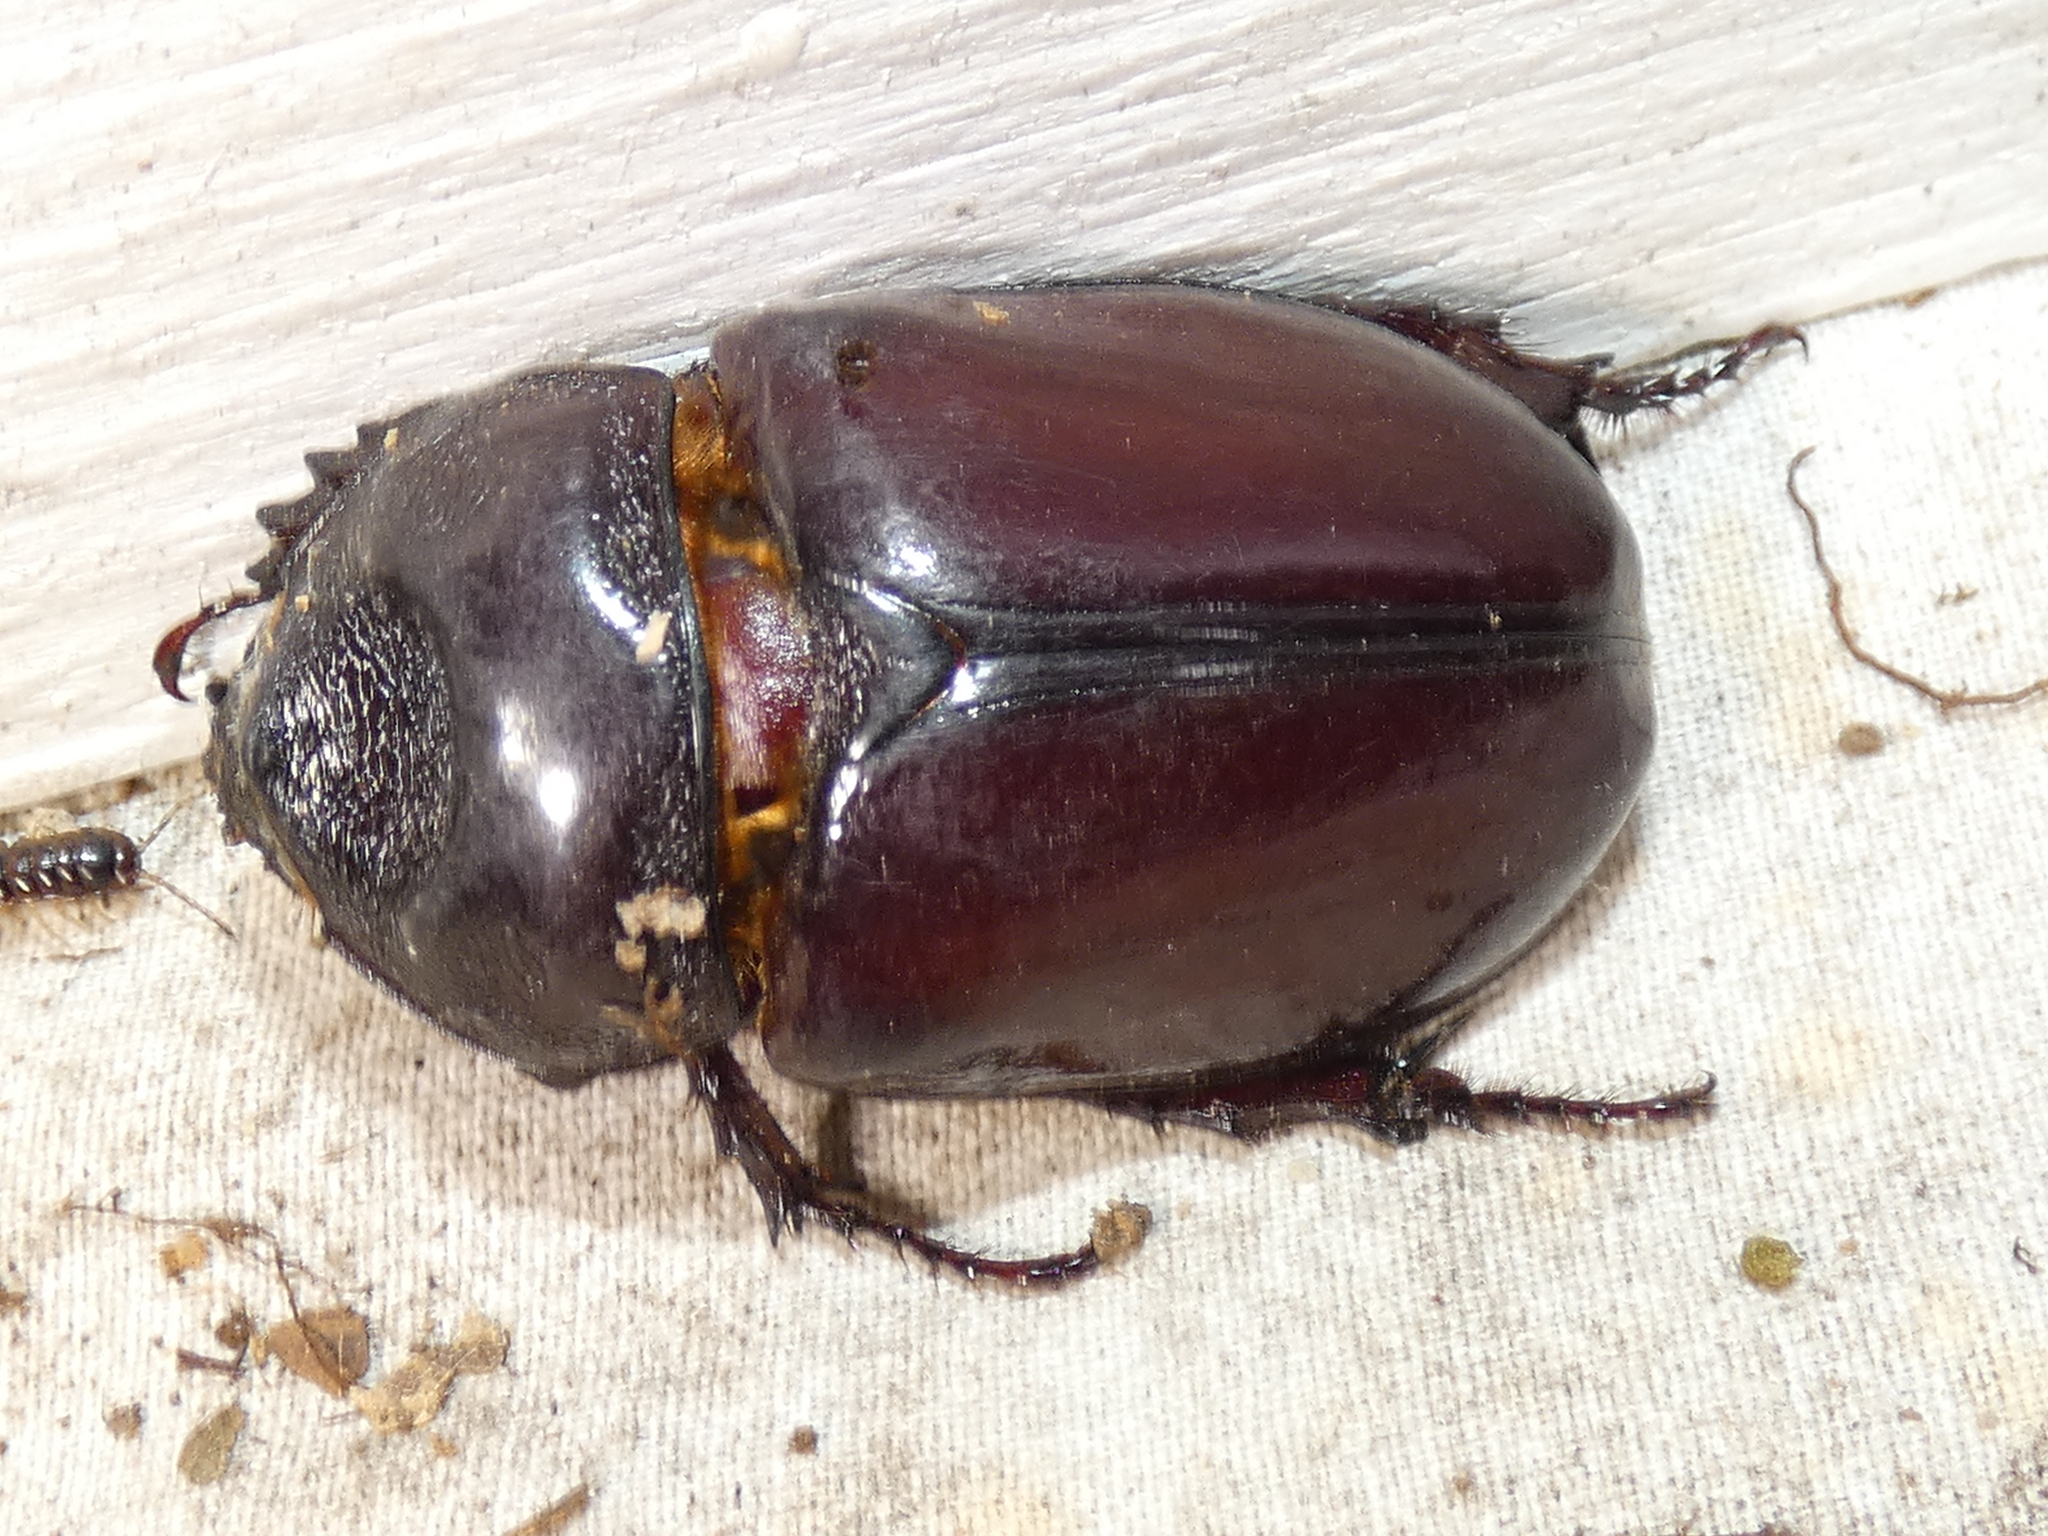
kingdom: Animalia
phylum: Arthropoda
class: Insecta
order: Coleoptera
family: Scarabaeidae
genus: Strategus
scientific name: Strategus aloeus
